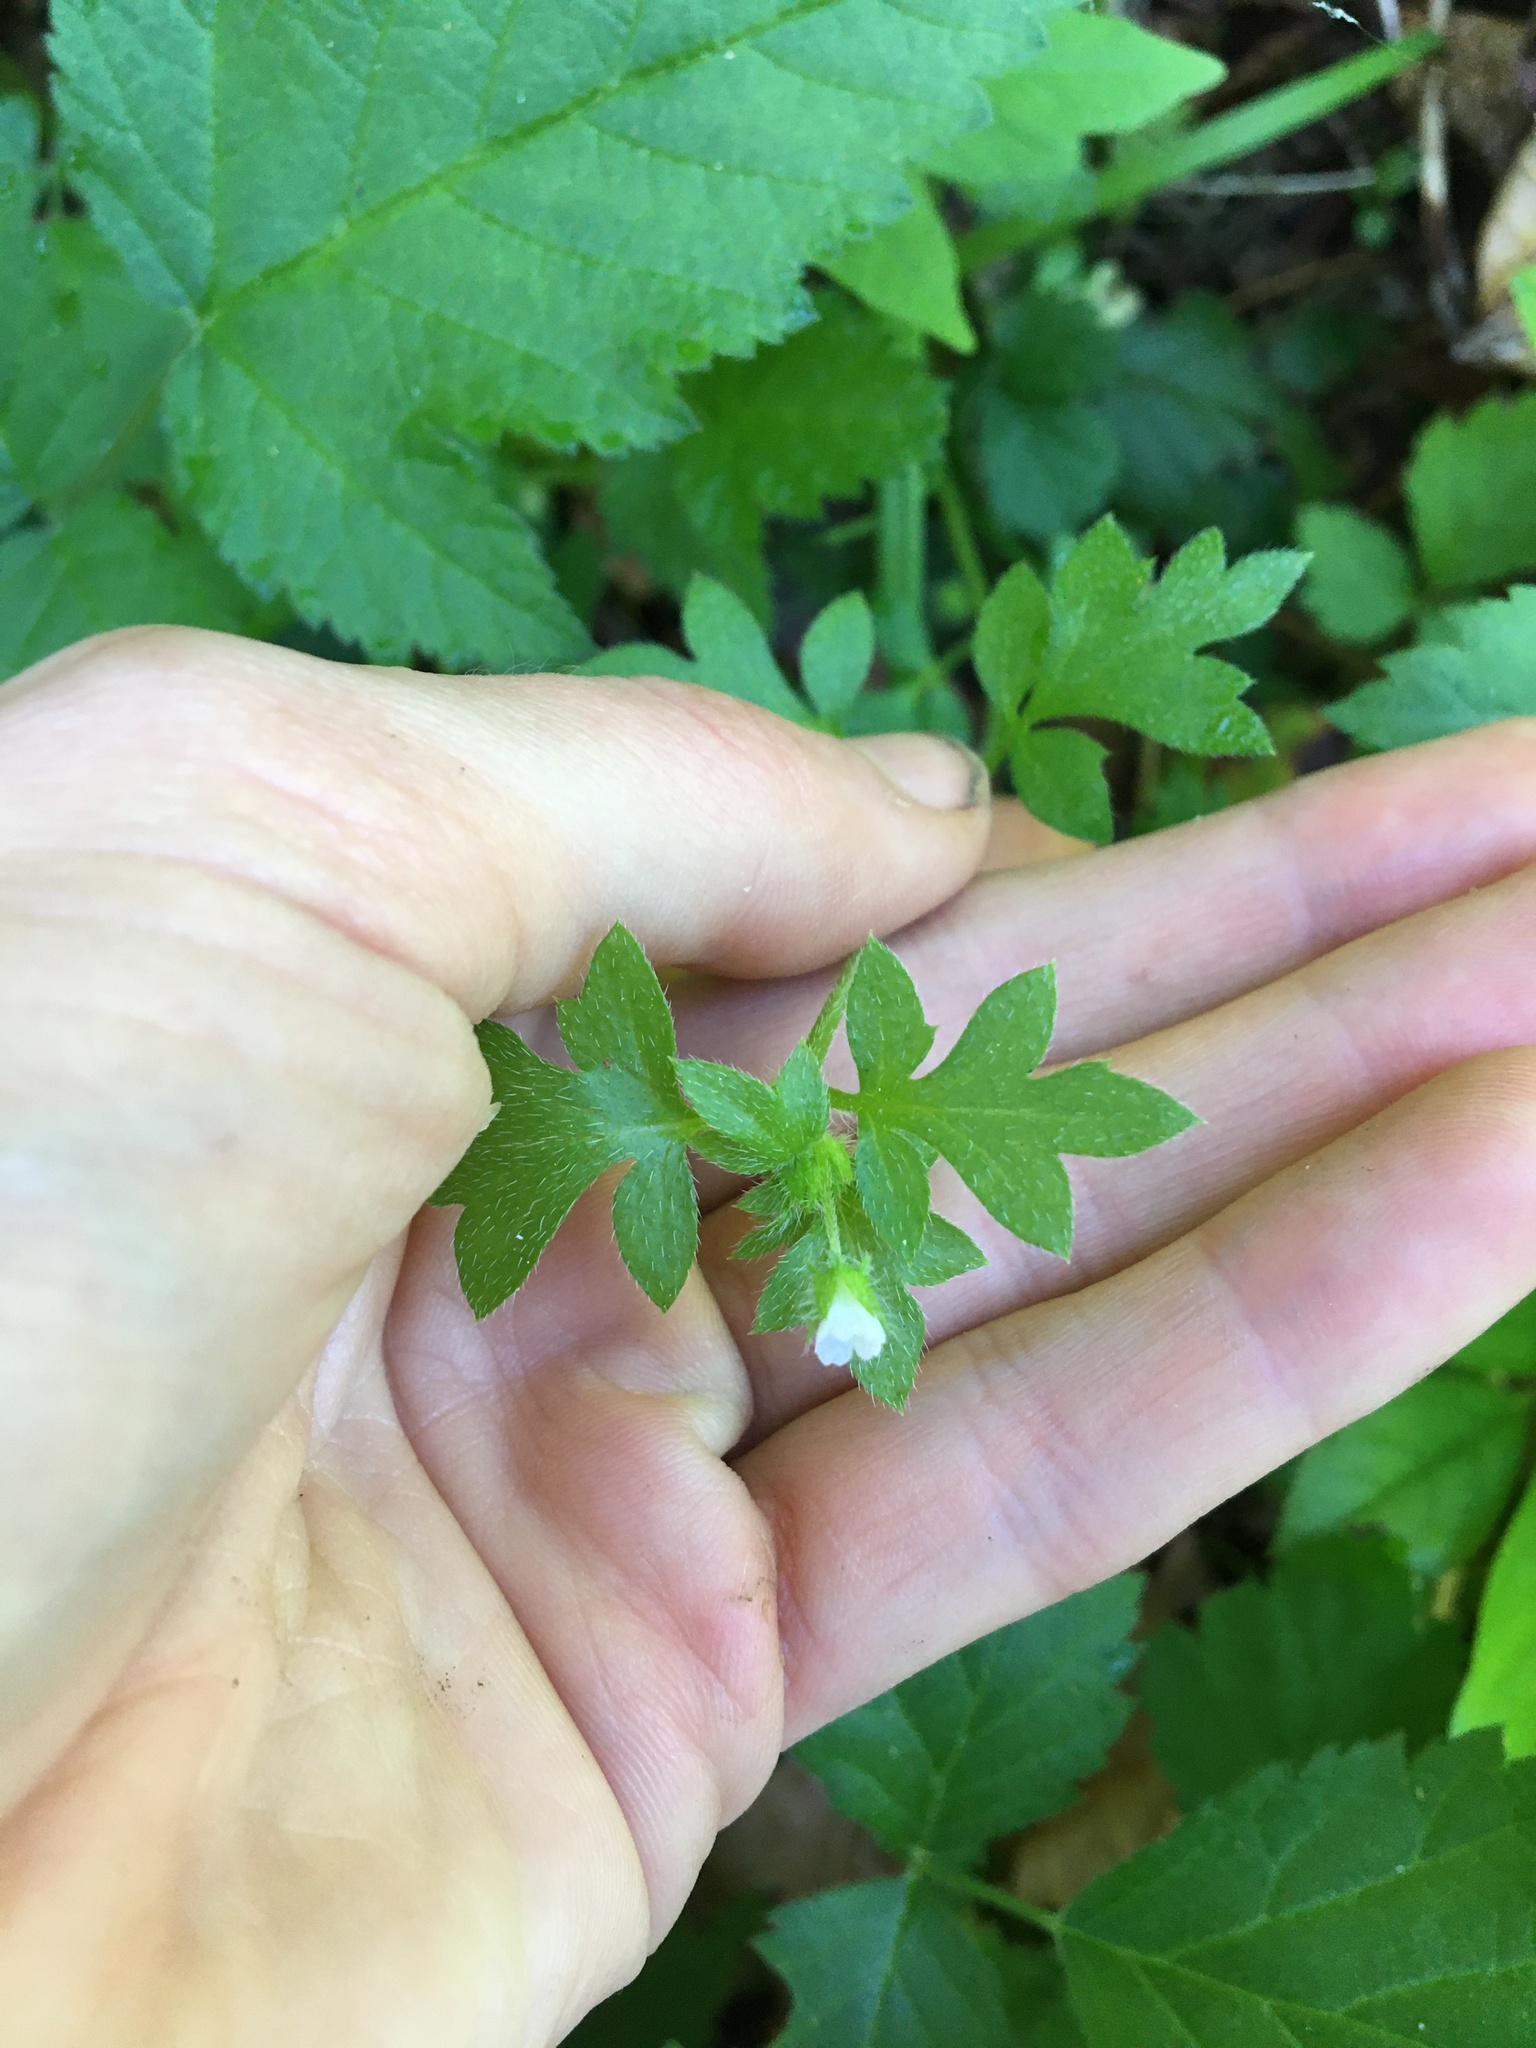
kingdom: Plantae
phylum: Tracheophyta
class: Magnoliopsida
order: Boraginales
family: Hydrophyllaceae
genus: Nemophila
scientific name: Nemophila parviflora
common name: Small-flowered baby-blue-eyes
